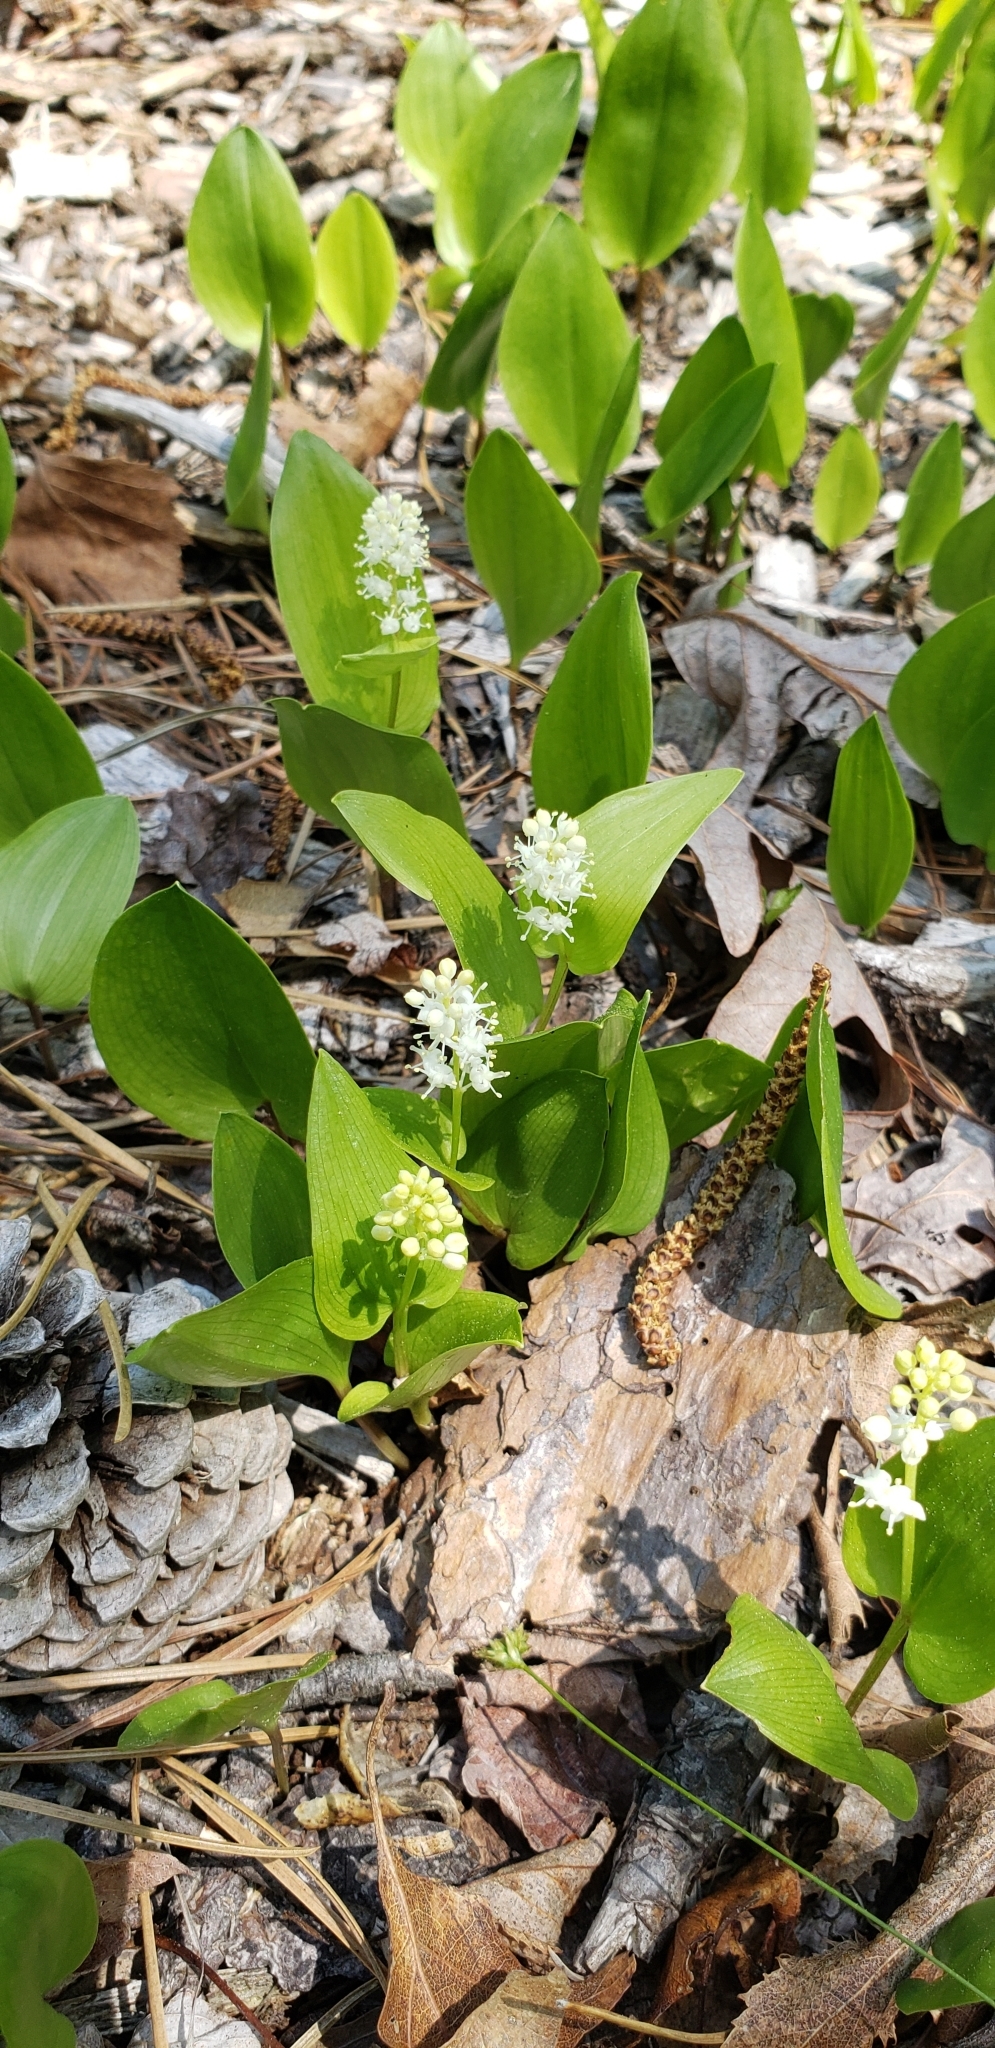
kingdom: Plantae
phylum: Tracheophyta
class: Liliopsida
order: Asparagales
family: Asparagaceae
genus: Maianthemum
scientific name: Maianthemum canadense
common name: False lily-of-the-valley
